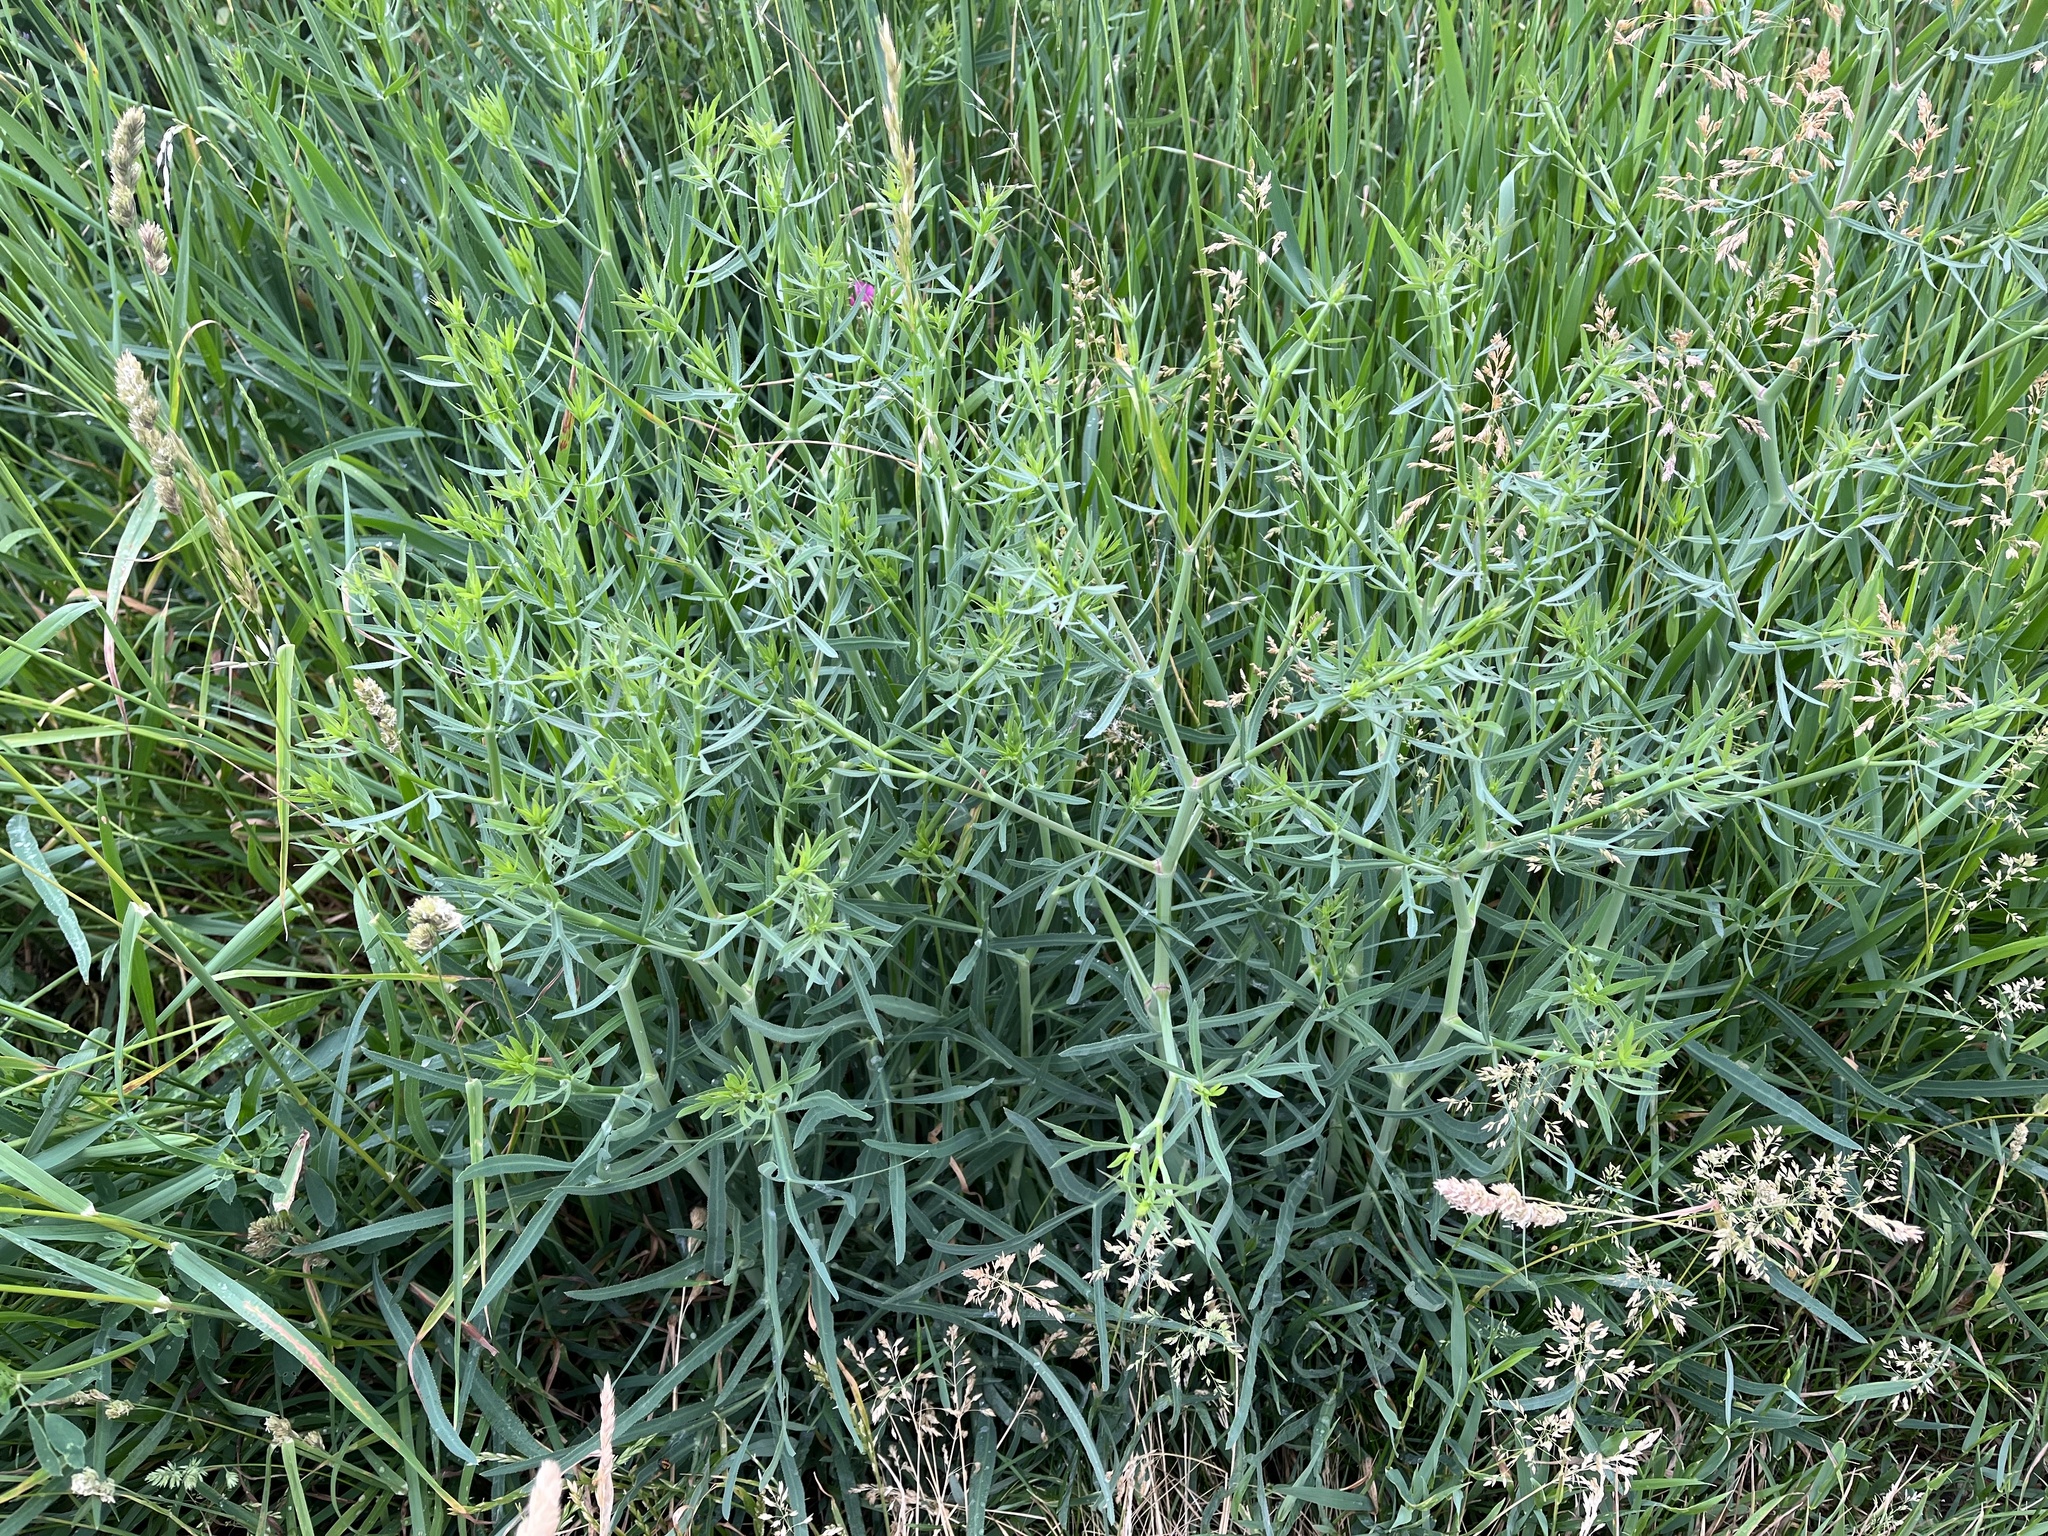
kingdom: Plantae
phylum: Tracheophyta
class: Magnoliopsida
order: Apiales
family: Apiaceae
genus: Falcaria
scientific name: Falcaria vulgaris
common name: Longleaf
